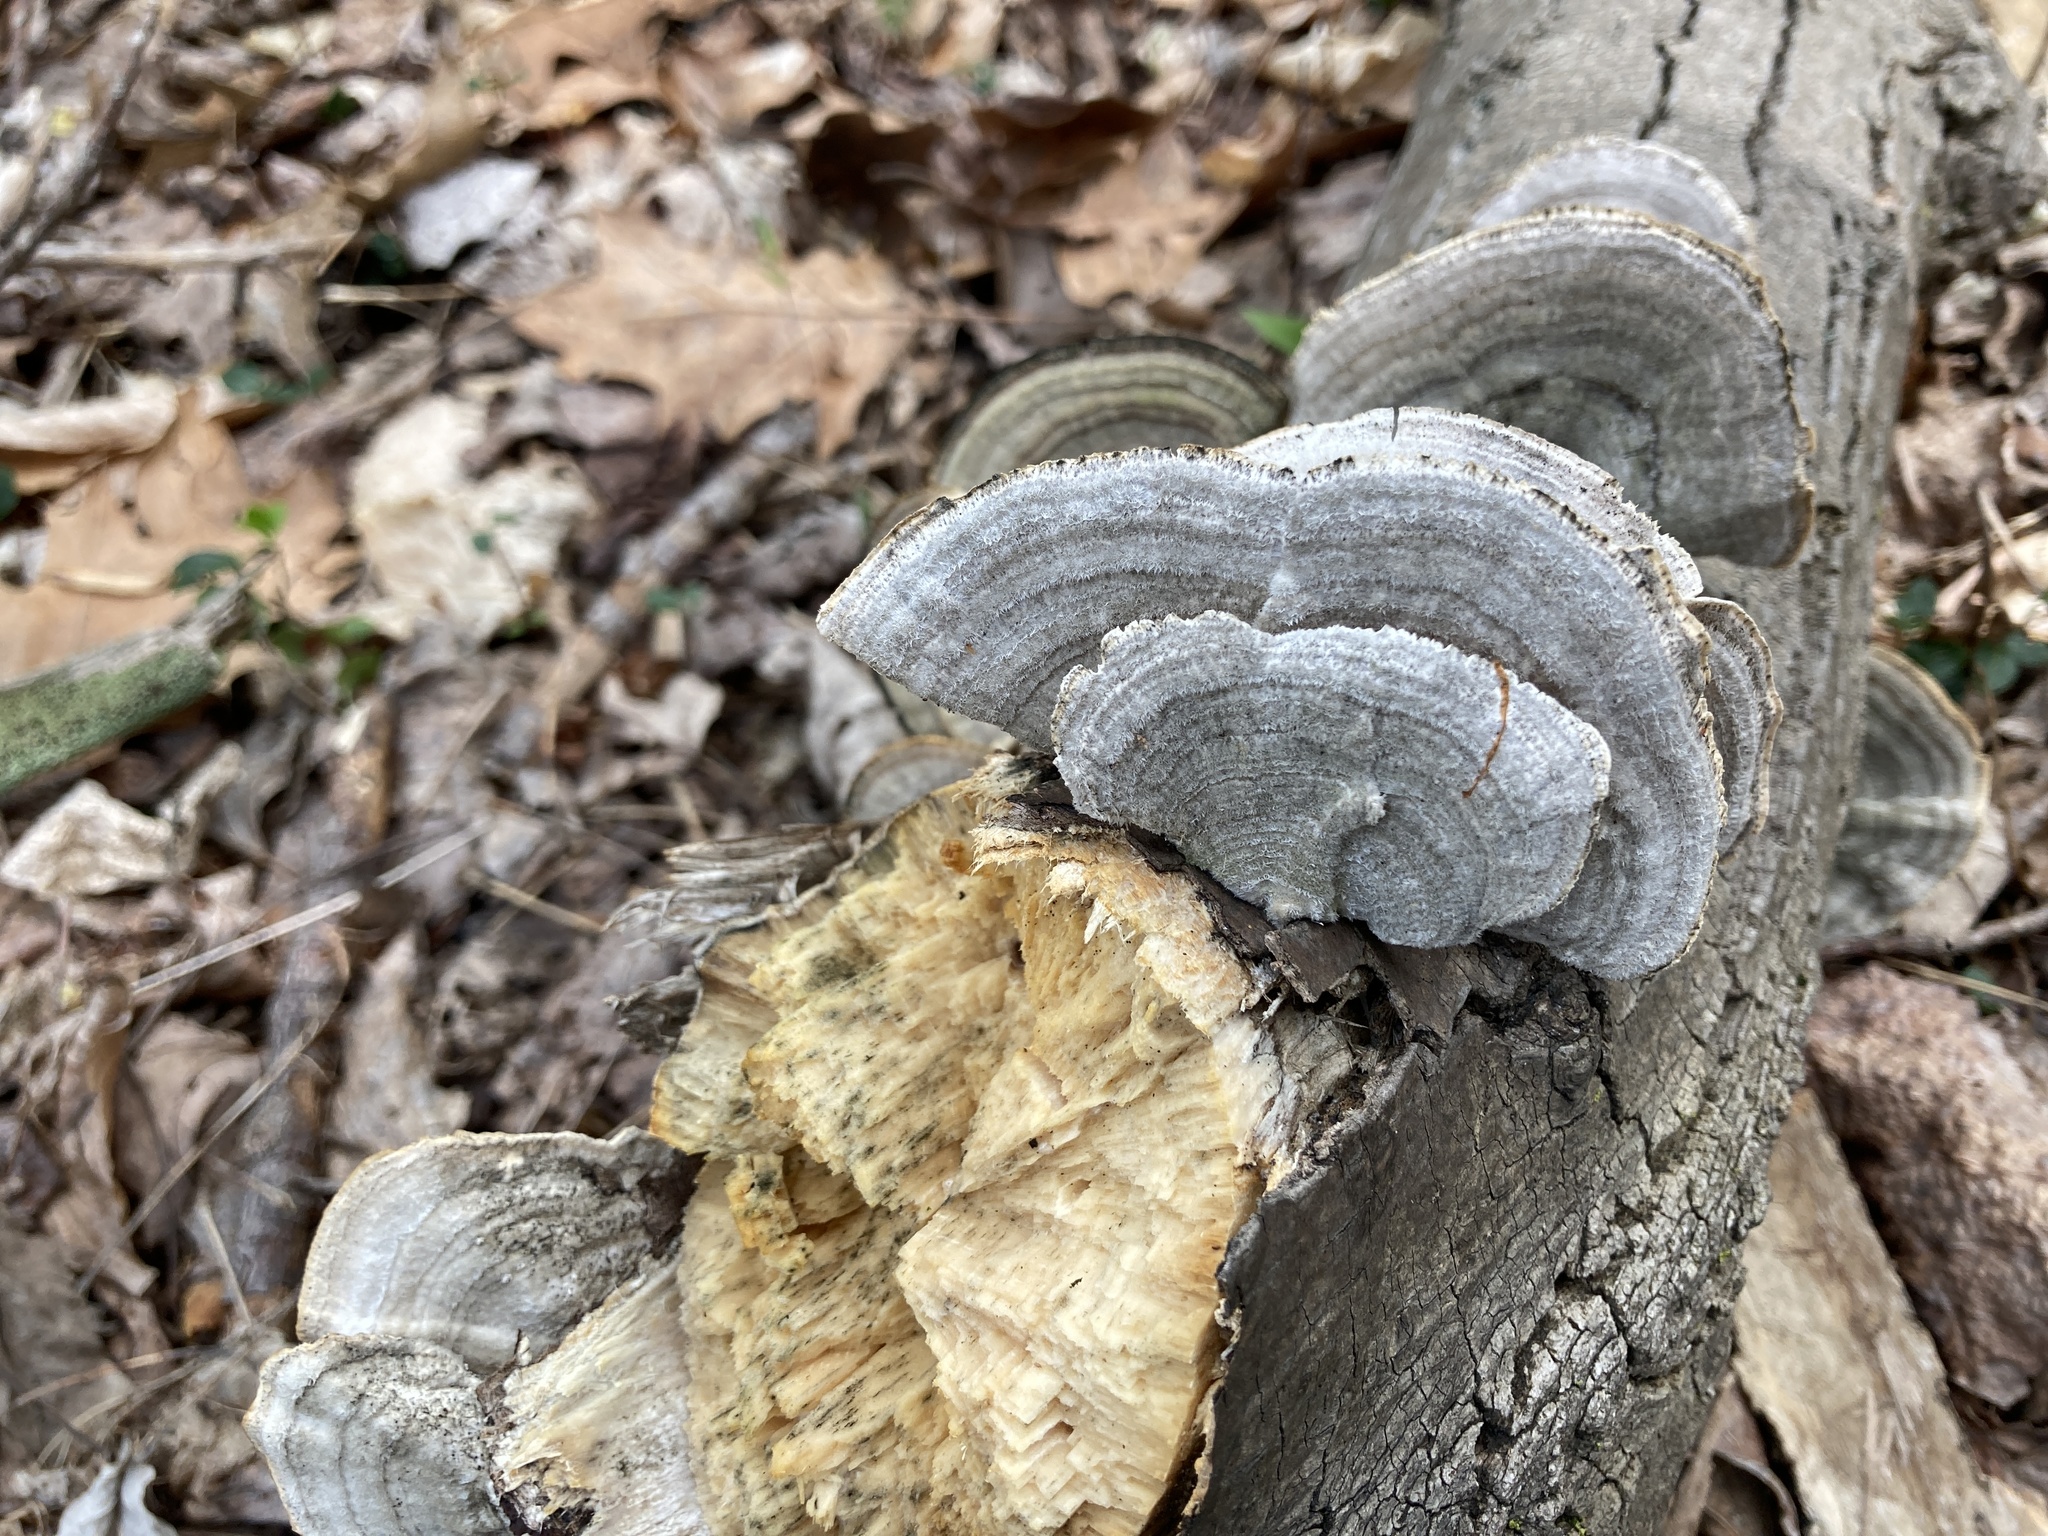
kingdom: Fungi
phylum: Basidiomycota
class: Agaricomycetes
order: Polyporales
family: Polyporaceae
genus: Lenzites
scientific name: Lenzites betulinus
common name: Birch mazegill
